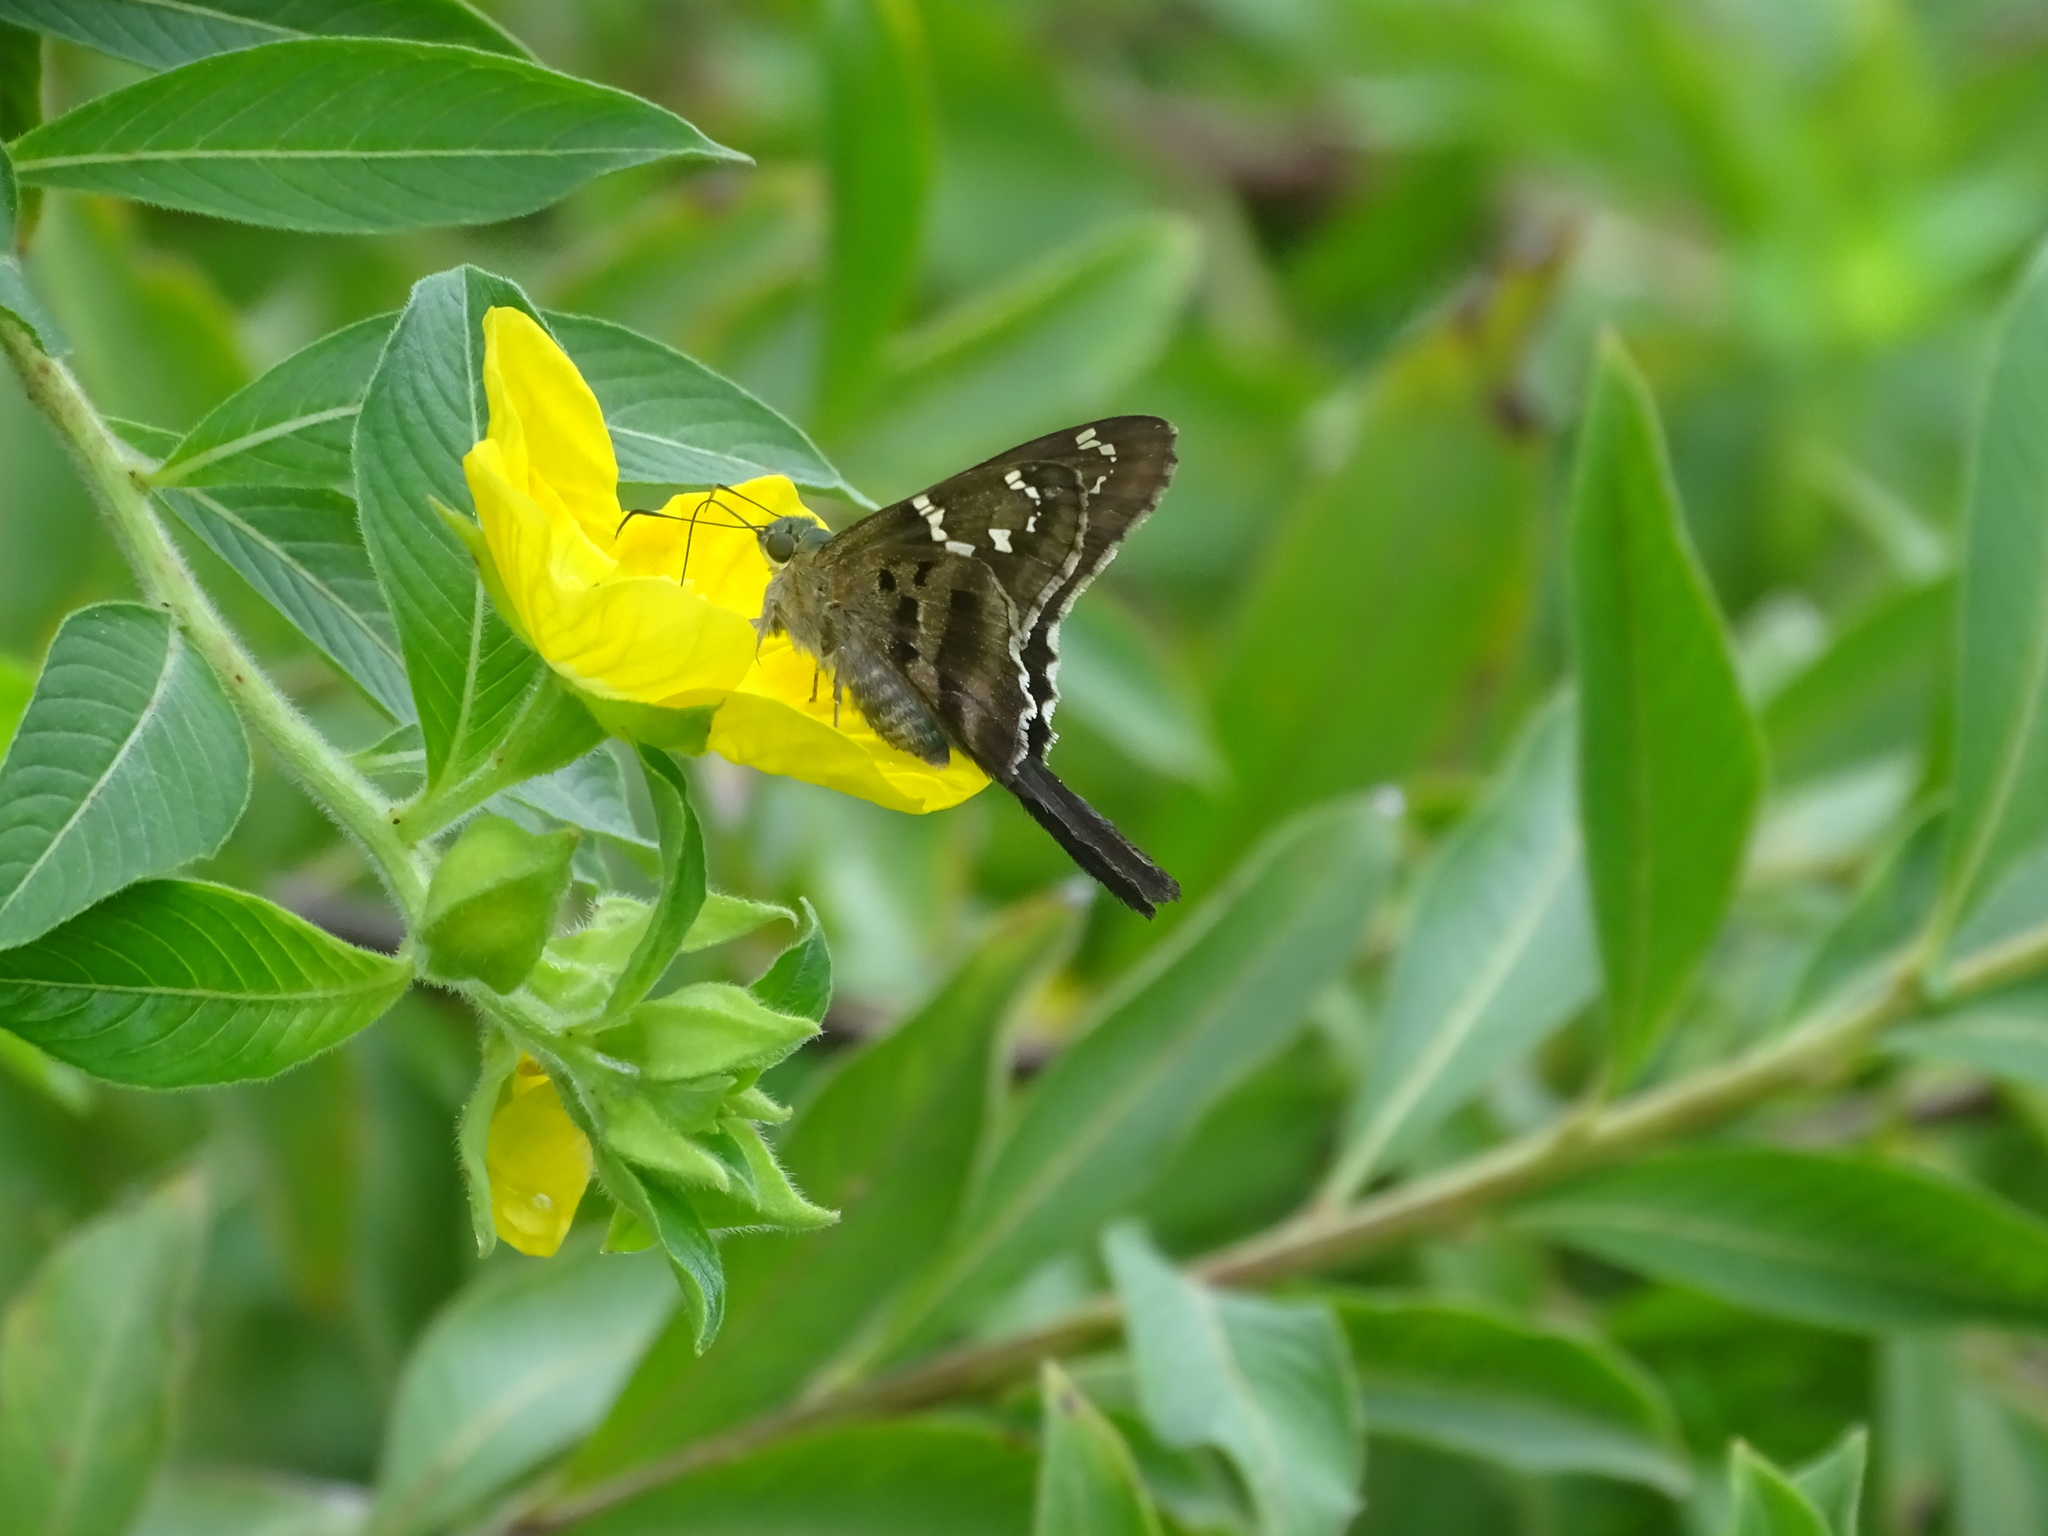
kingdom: Animalia
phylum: Arthropoda
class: Insecta
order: Lepidoptera
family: Hesperiidae
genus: Urbanus
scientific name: Urbanus proteus
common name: Long-tailed skipper
